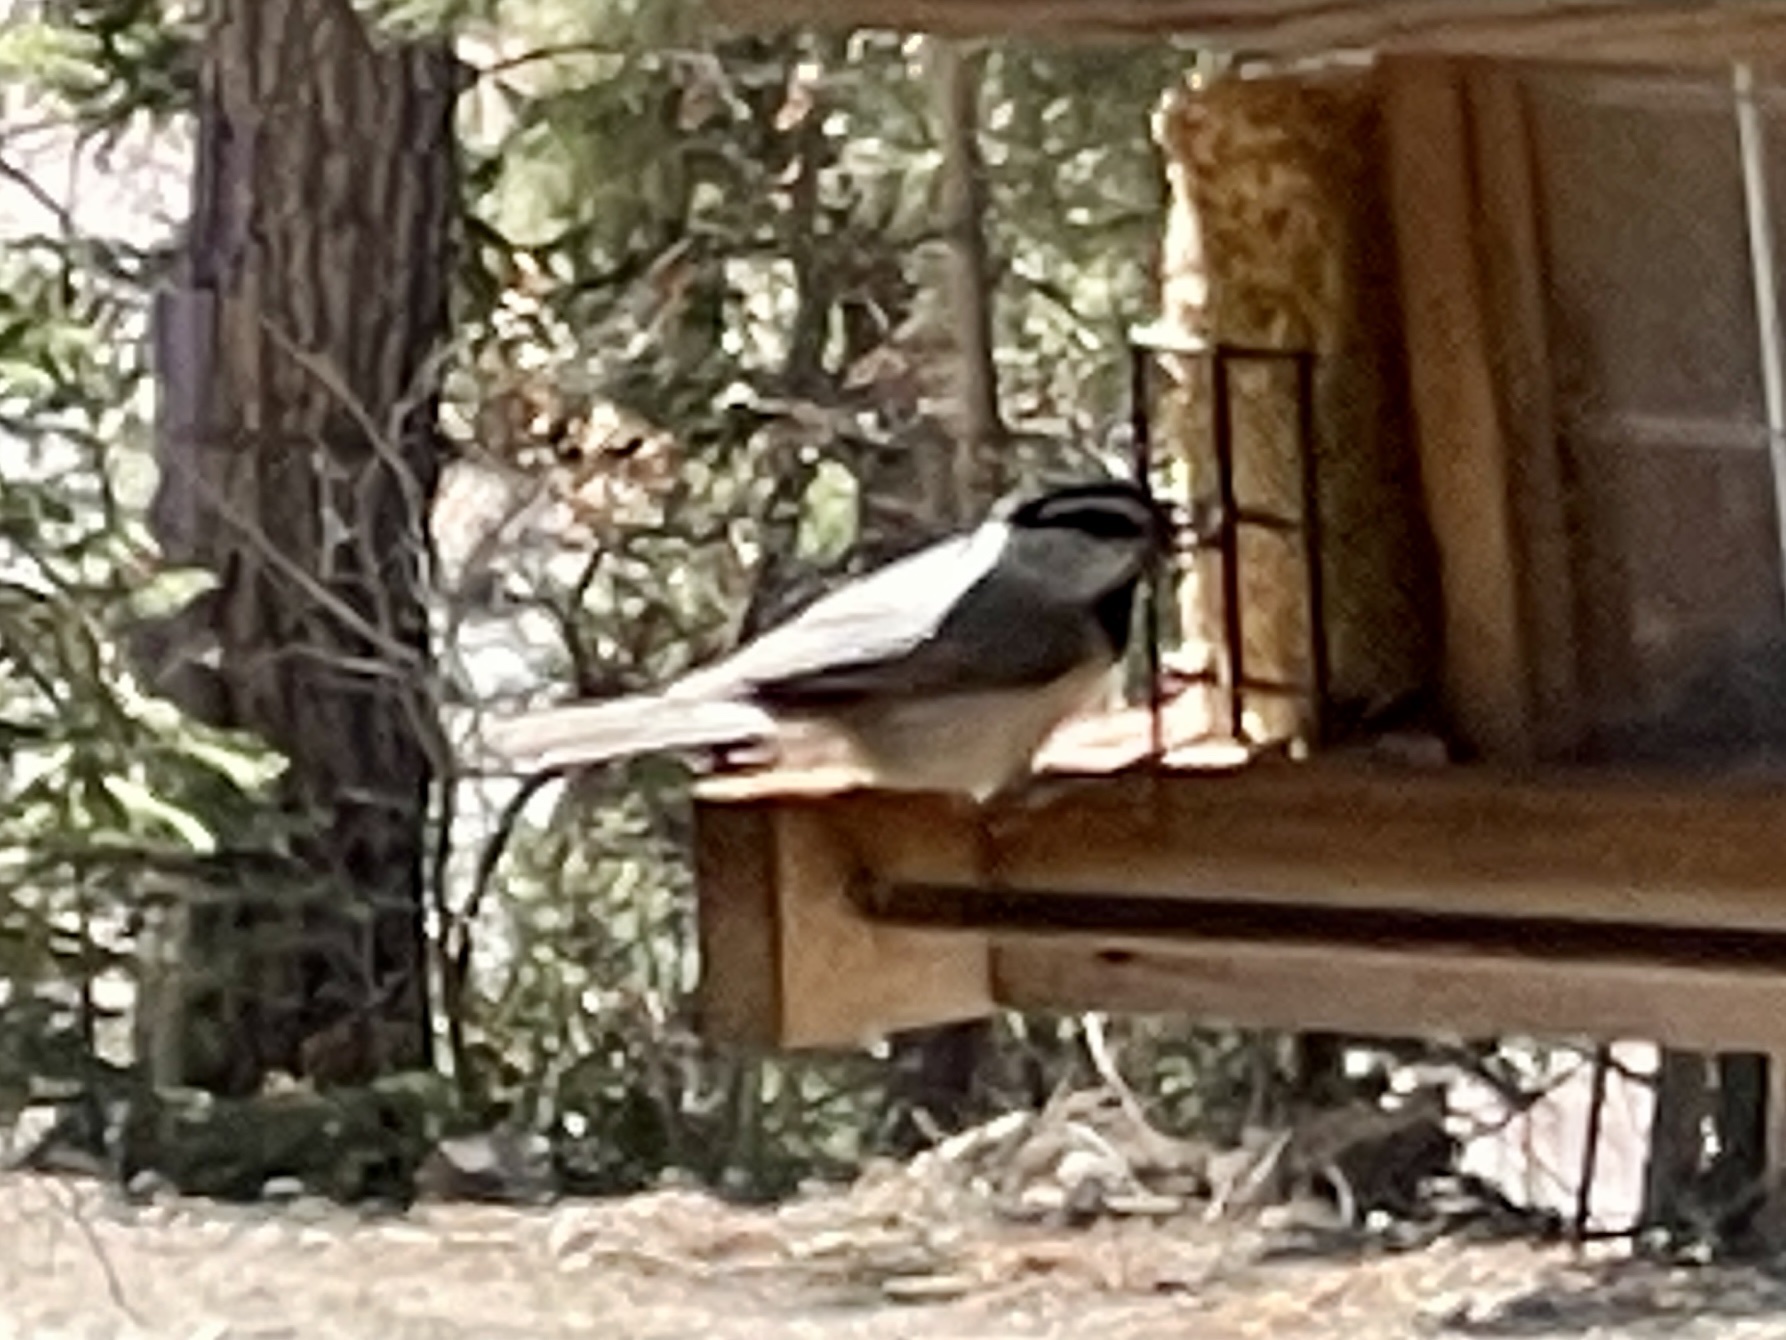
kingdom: Animalia
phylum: Chordata
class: Aves
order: Passeriformes
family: Paridae
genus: Poecile
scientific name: Poecile gambeli
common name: Mountain chickadee
